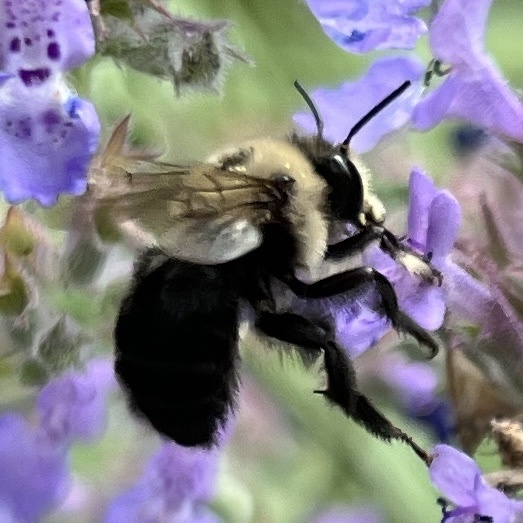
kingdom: Animalia
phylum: Arthropoda
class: Insecta
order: Hymenoptera
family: Apidae
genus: Anthophora
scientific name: Anthophora abrupta
